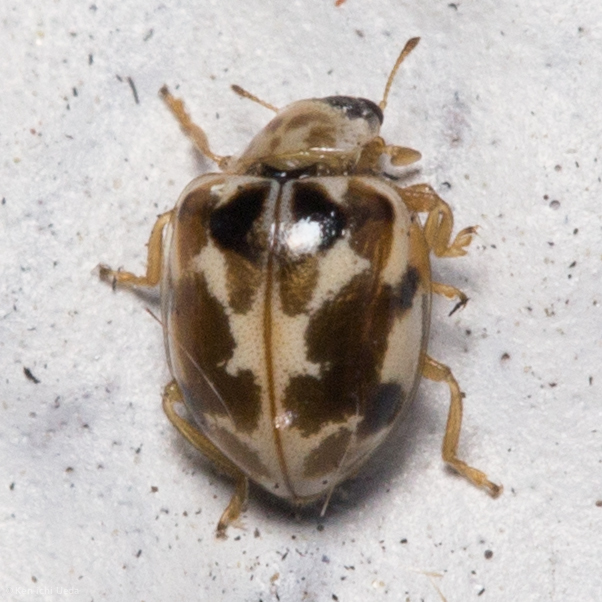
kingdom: Animalia
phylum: Arthropoda
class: Insecta
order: Coleoptera
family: Coccinellidae
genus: Psyllobora
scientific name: Psyllobora vigintimaculata
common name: Ladybird beetle
